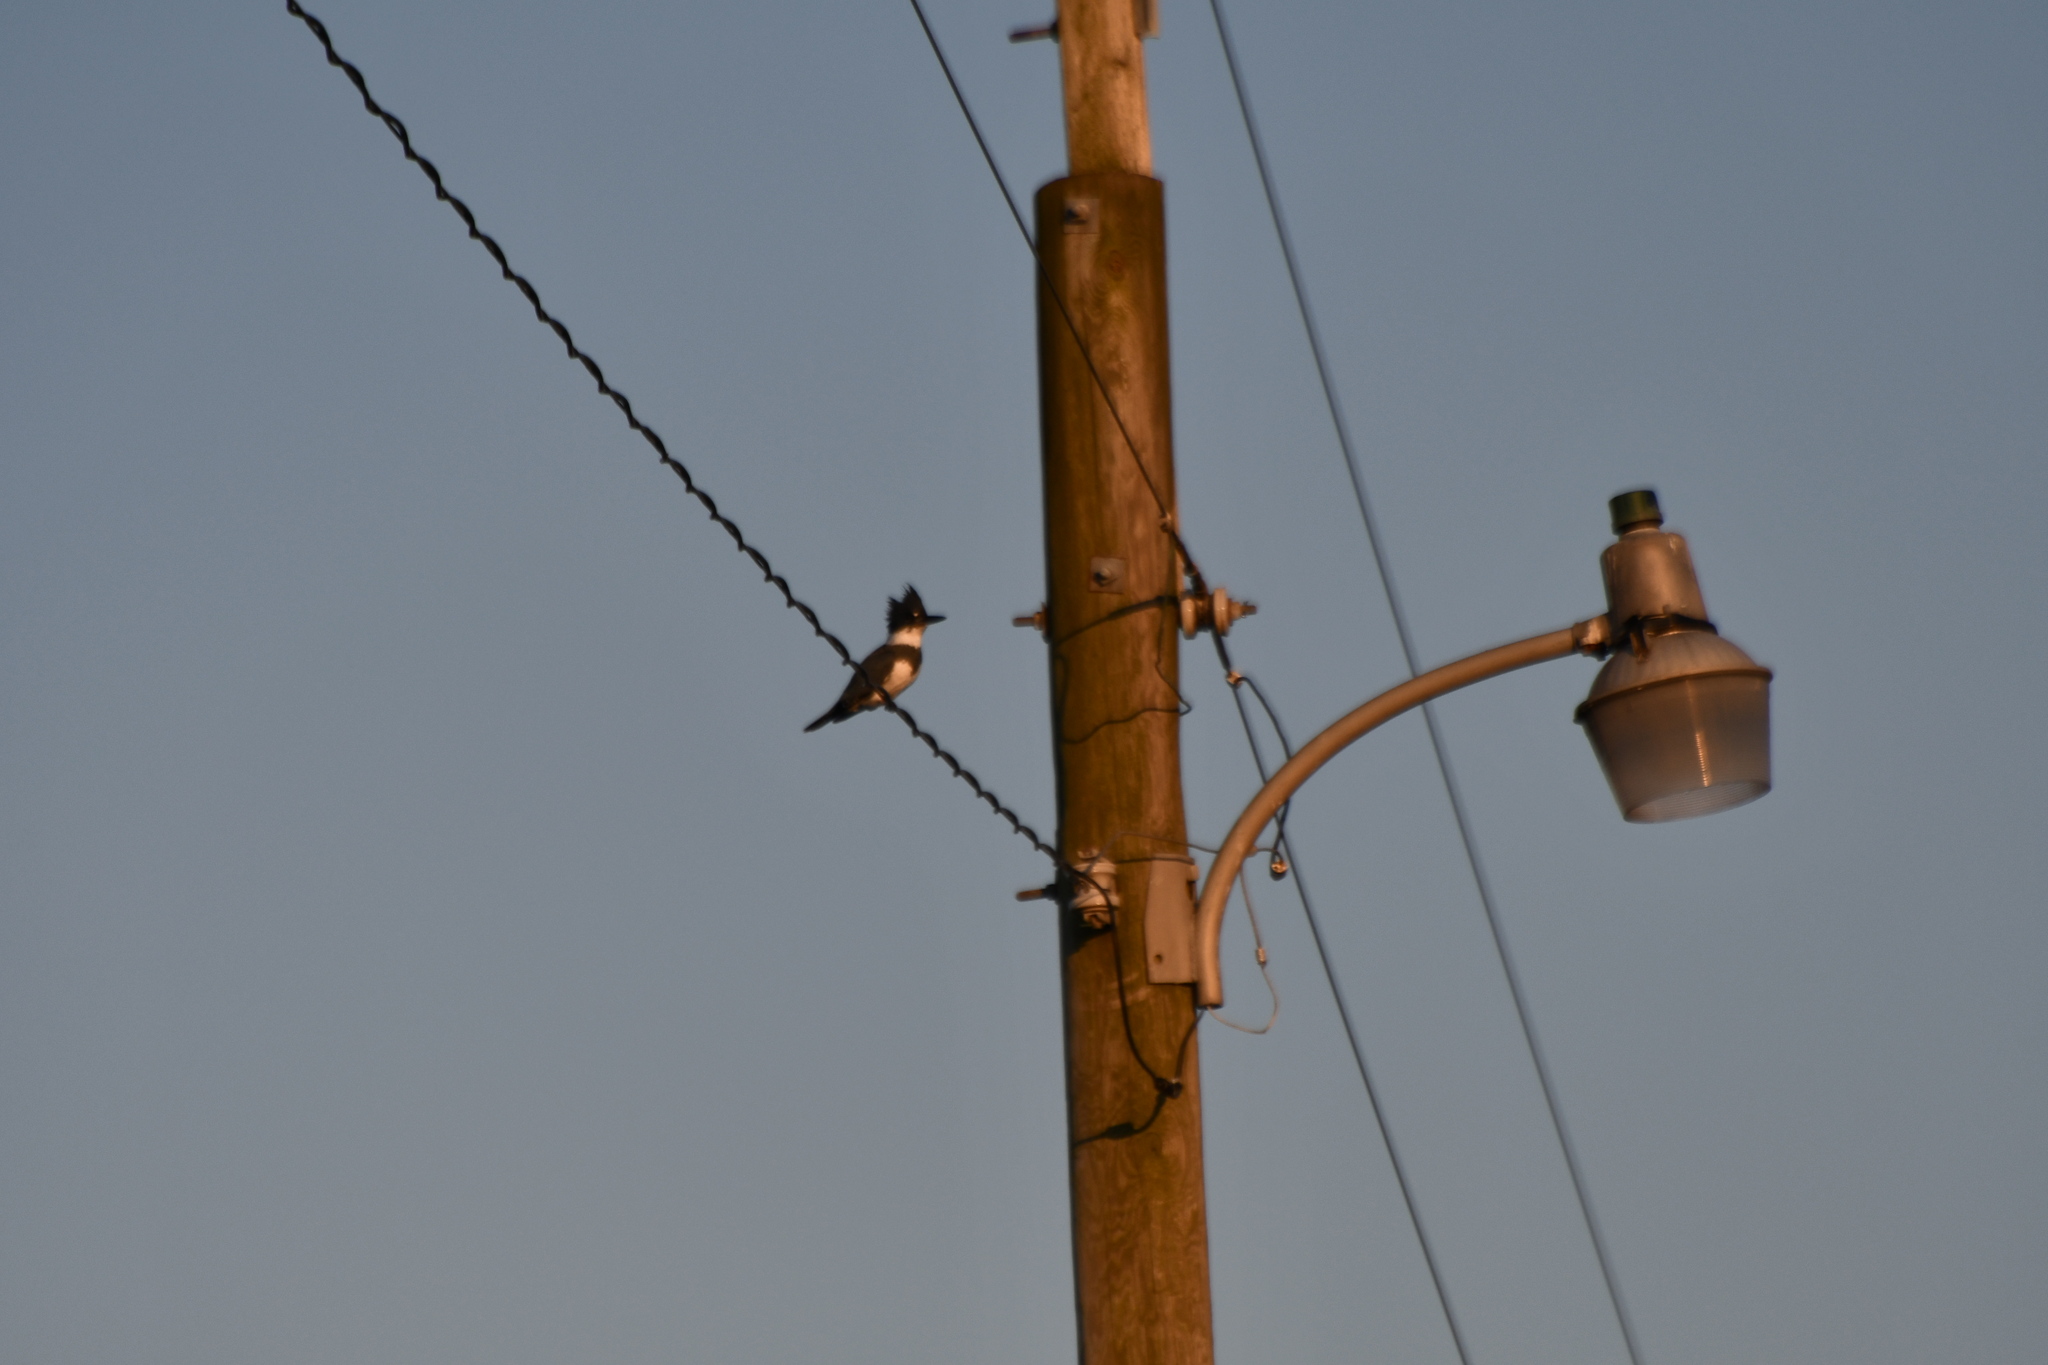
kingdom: Animalia
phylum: Chordata
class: Aves
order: Coraciiformes
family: Alcedinidae
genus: Megaceryle
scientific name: Megaceryle alcyon
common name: Belted kingfisher
